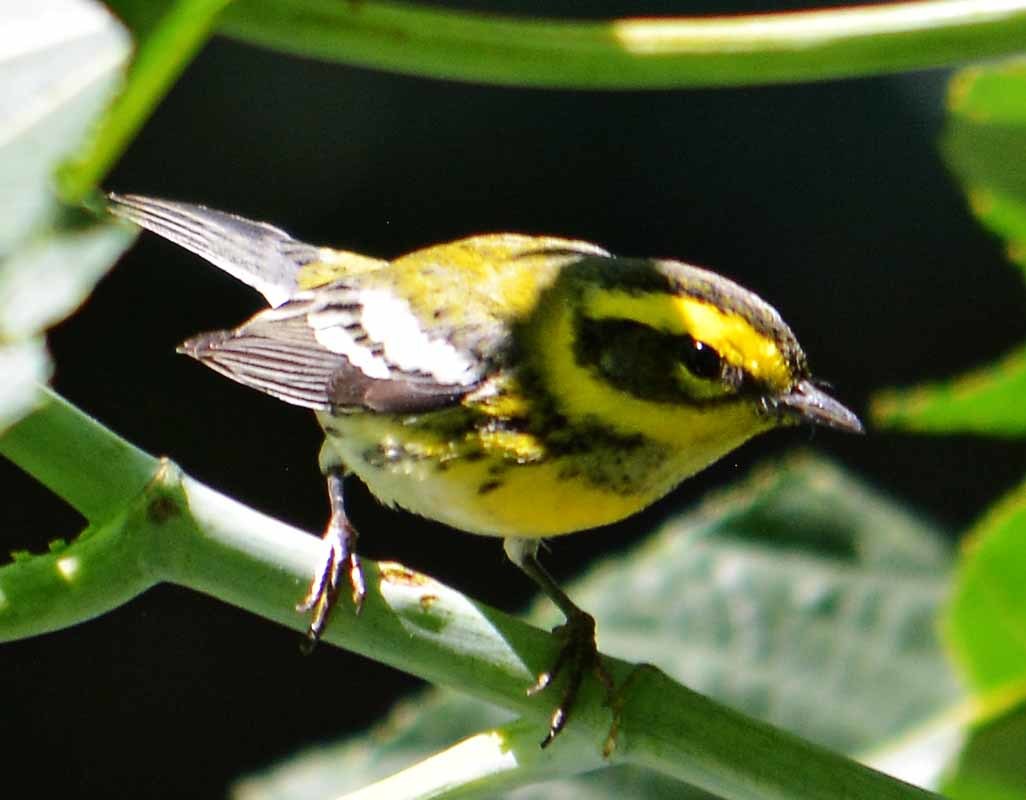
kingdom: Animalia
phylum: Chordata
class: Aves
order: Passeriformes
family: Parulidae
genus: Setophaga
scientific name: Setophaga townsendi
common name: Townsend's warbler
